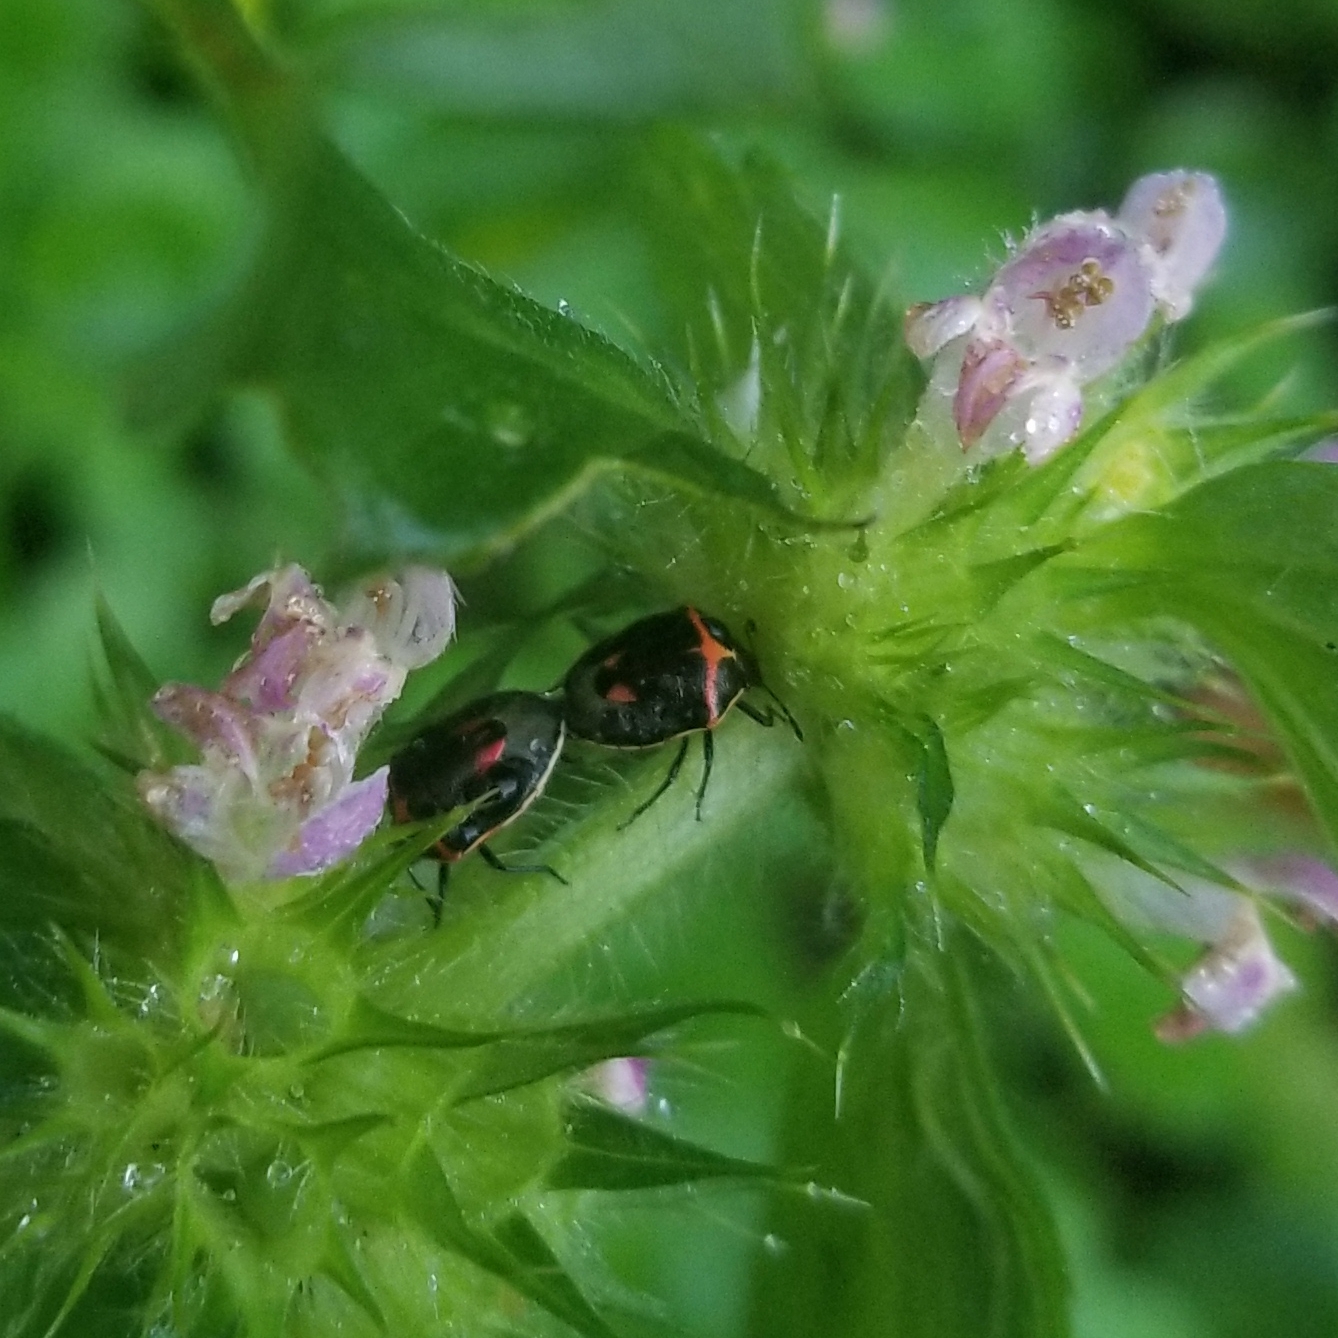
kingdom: Animalia
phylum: Arthropoda
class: Insecta
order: Hemiptera
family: Pentatomidae
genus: Cosmopepla
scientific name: Cosmopepla lintneriana
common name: Twice-stabbed stink bug
